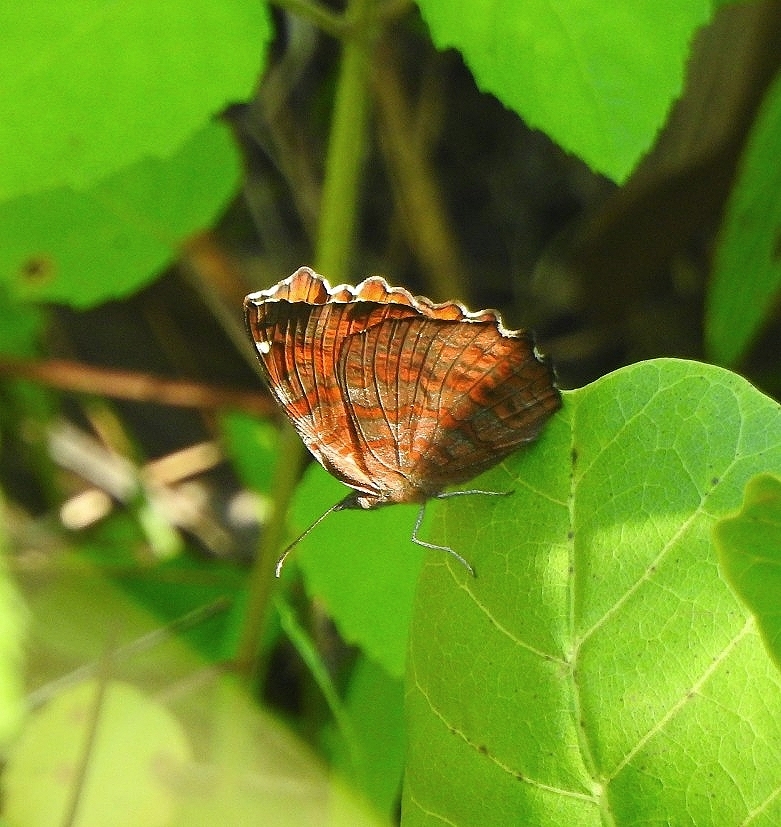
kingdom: Animalia
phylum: Arthropoda
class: Insecta
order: Lepidoptera
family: Nymphalidae
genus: Ariadne
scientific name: Ariadne ariadne
